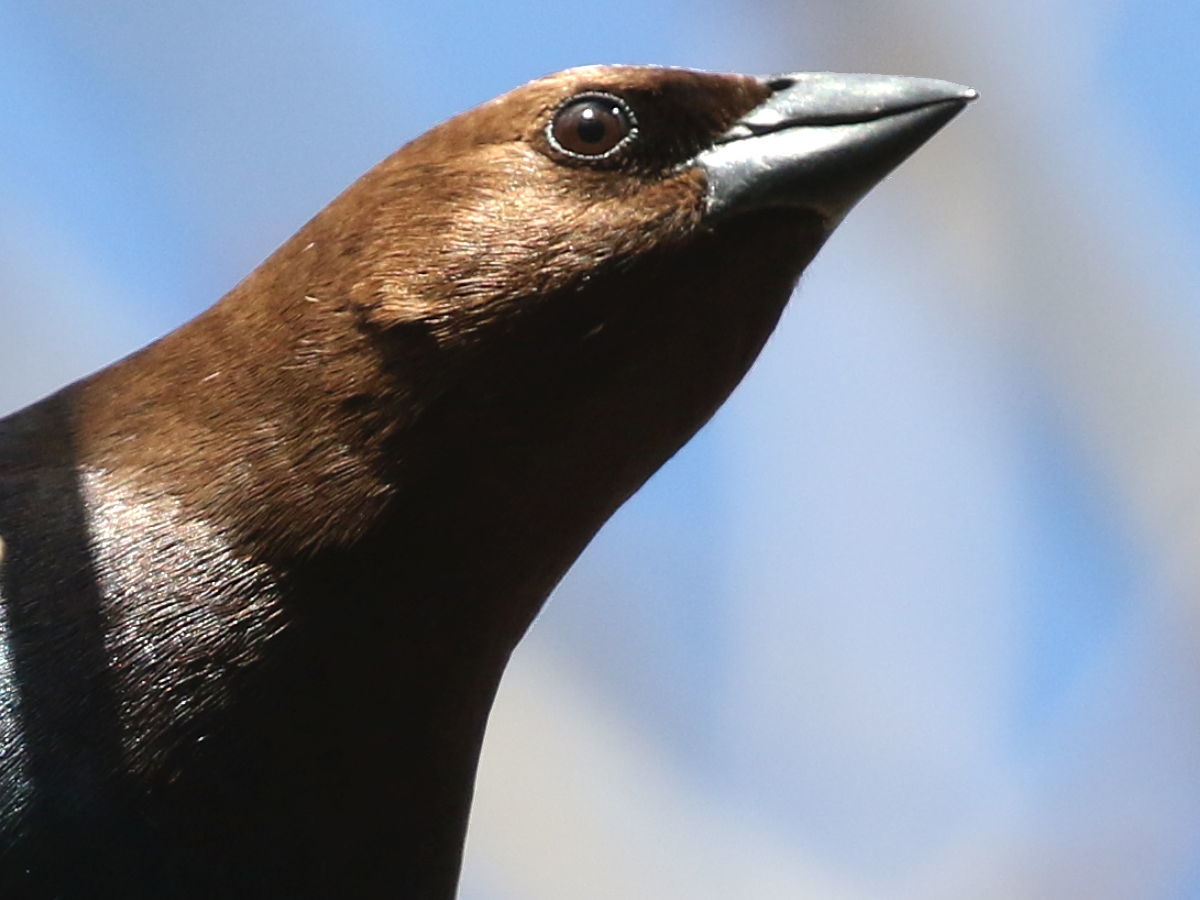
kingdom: Animalia
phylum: Chordata
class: Aves
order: Passeriformes
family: Icteridae
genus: Molothrus
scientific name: Molothrus ater
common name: Brown-headed cowbird
